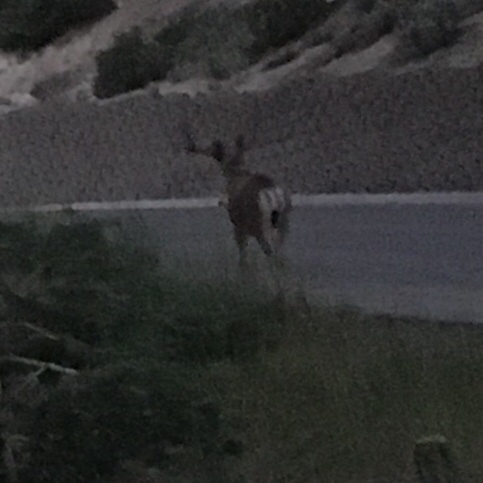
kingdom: Animalia
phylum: Chordata
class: Mammalia
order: Artiodactyla
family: Cervidae
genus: Odocoileus
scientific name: Odocoileus hemionus
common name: Mule deer
